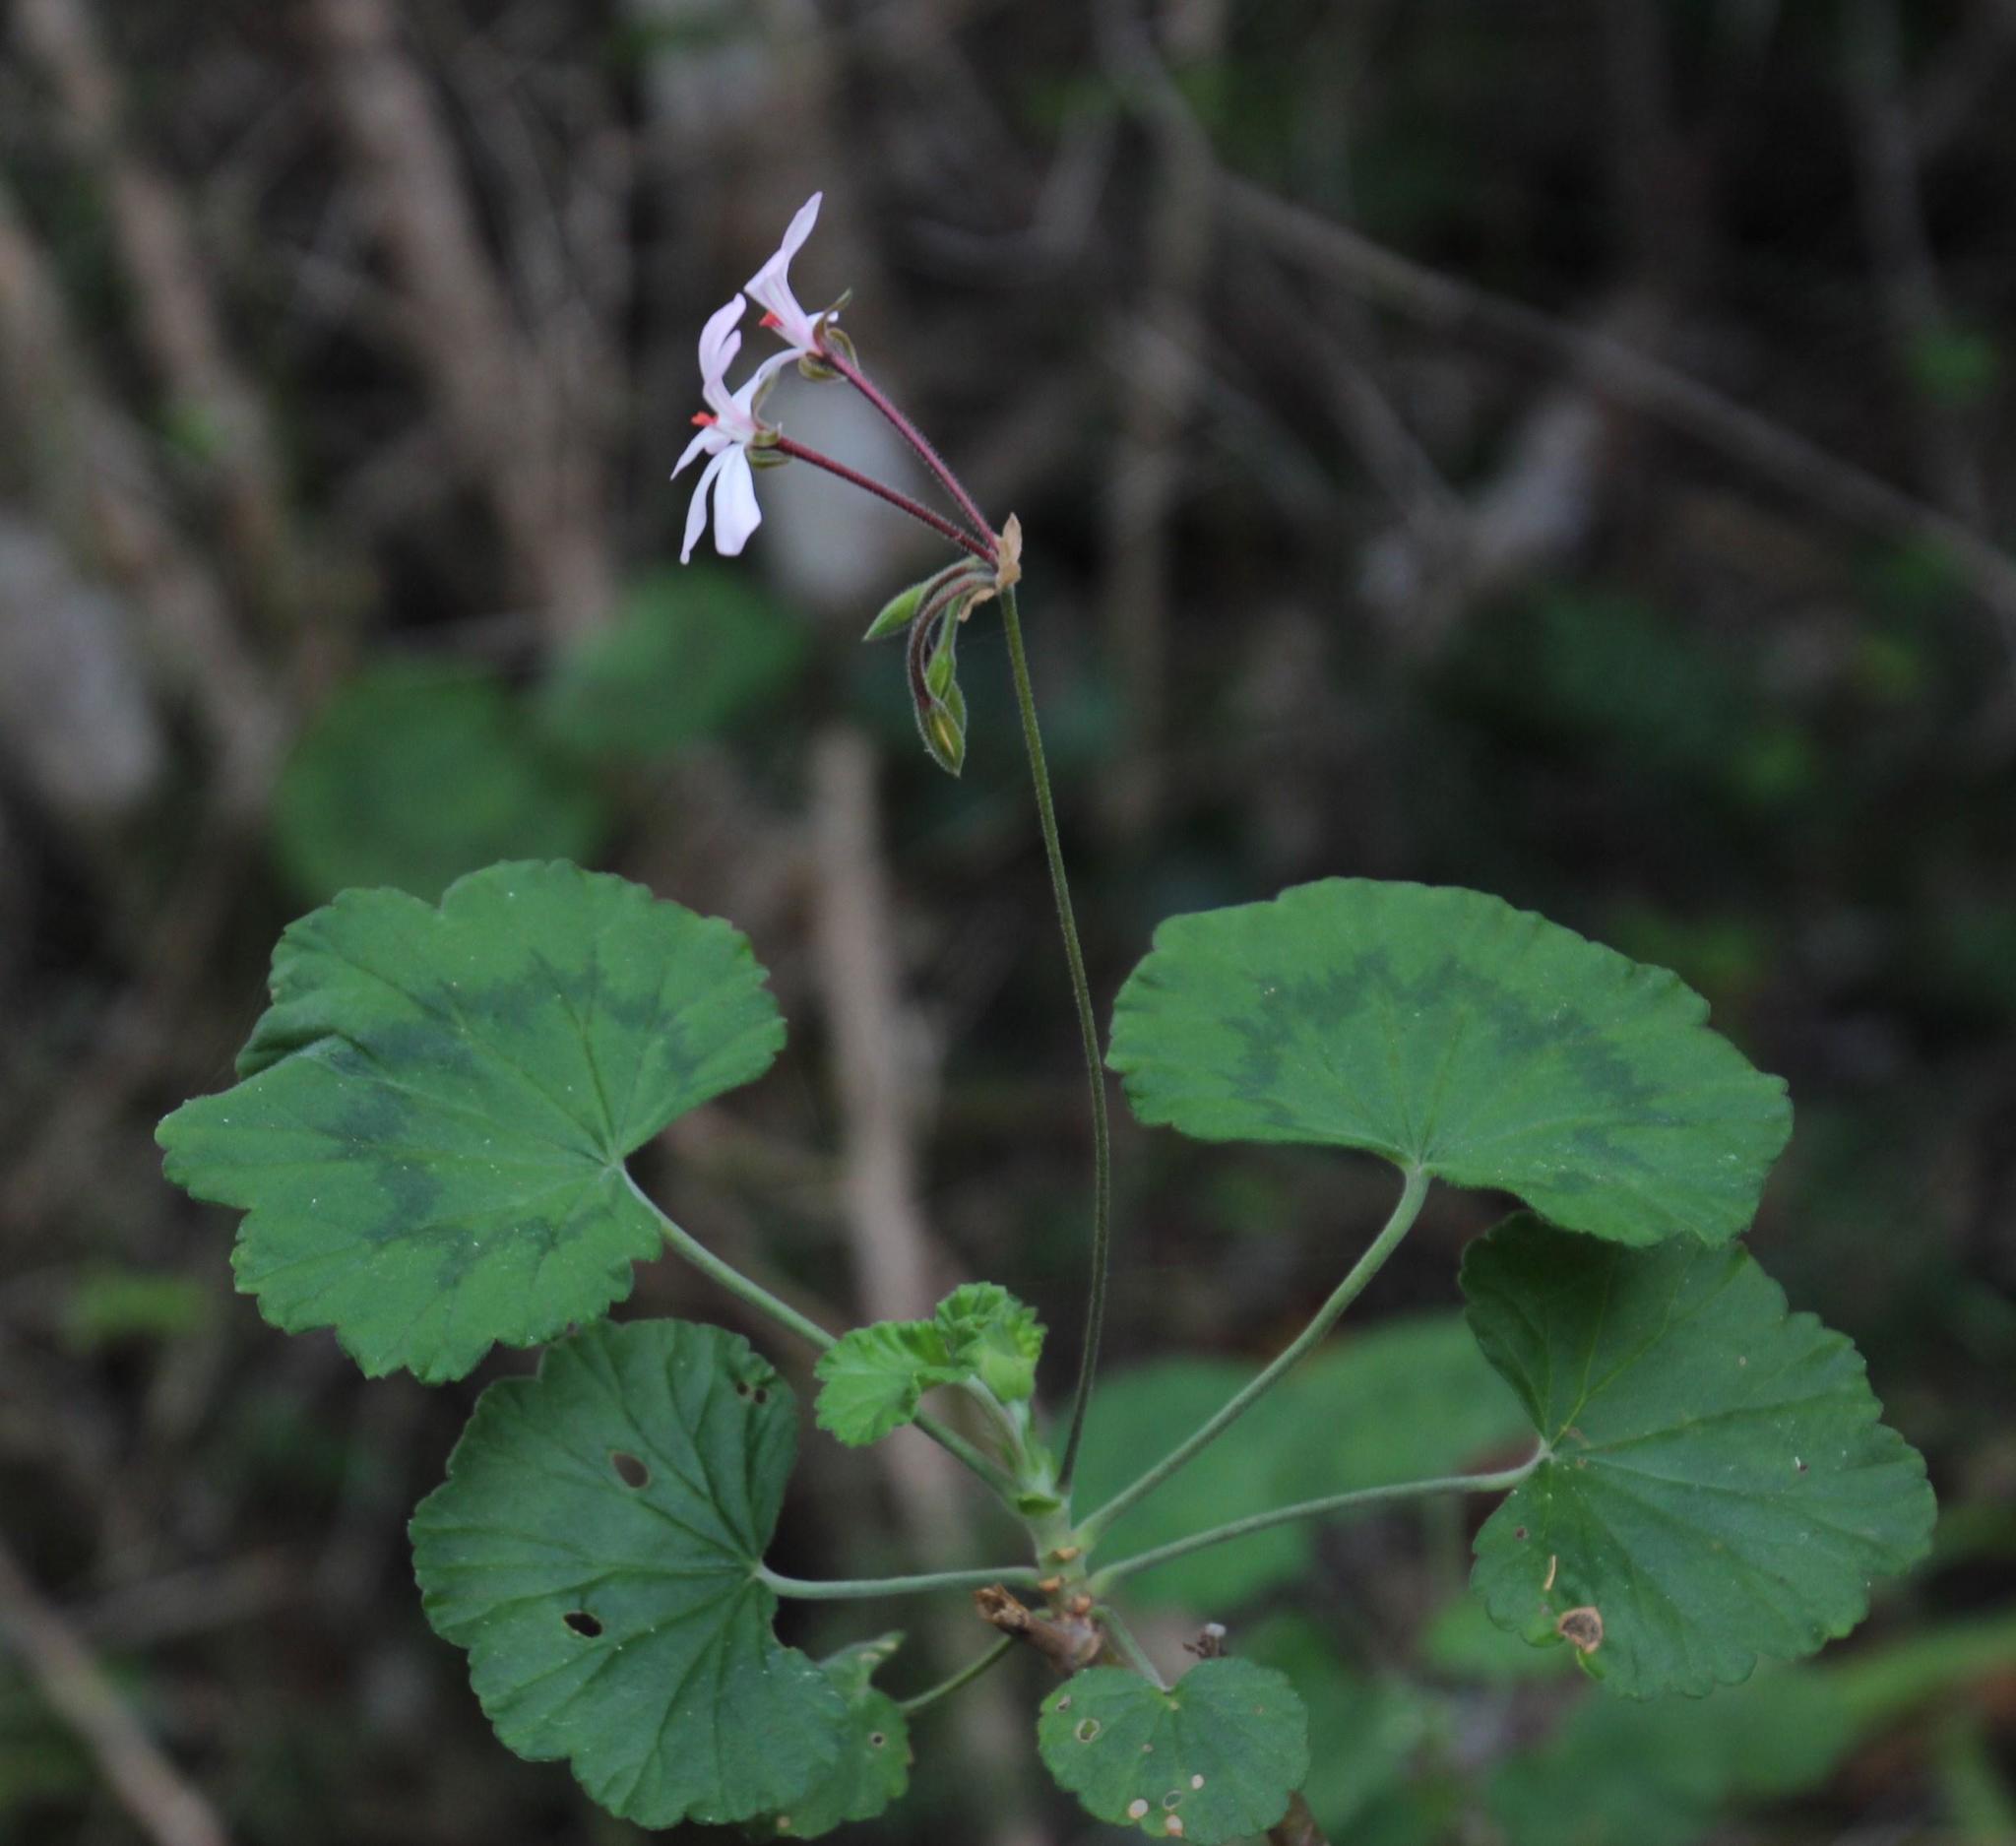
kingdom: Plantae
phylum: Tracheophyta
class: Magnoliopsida
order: Geraniales
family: Geraniaceae
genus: Pelargonium
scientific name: Pelargonium zonale
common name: Horseshoe geranium
